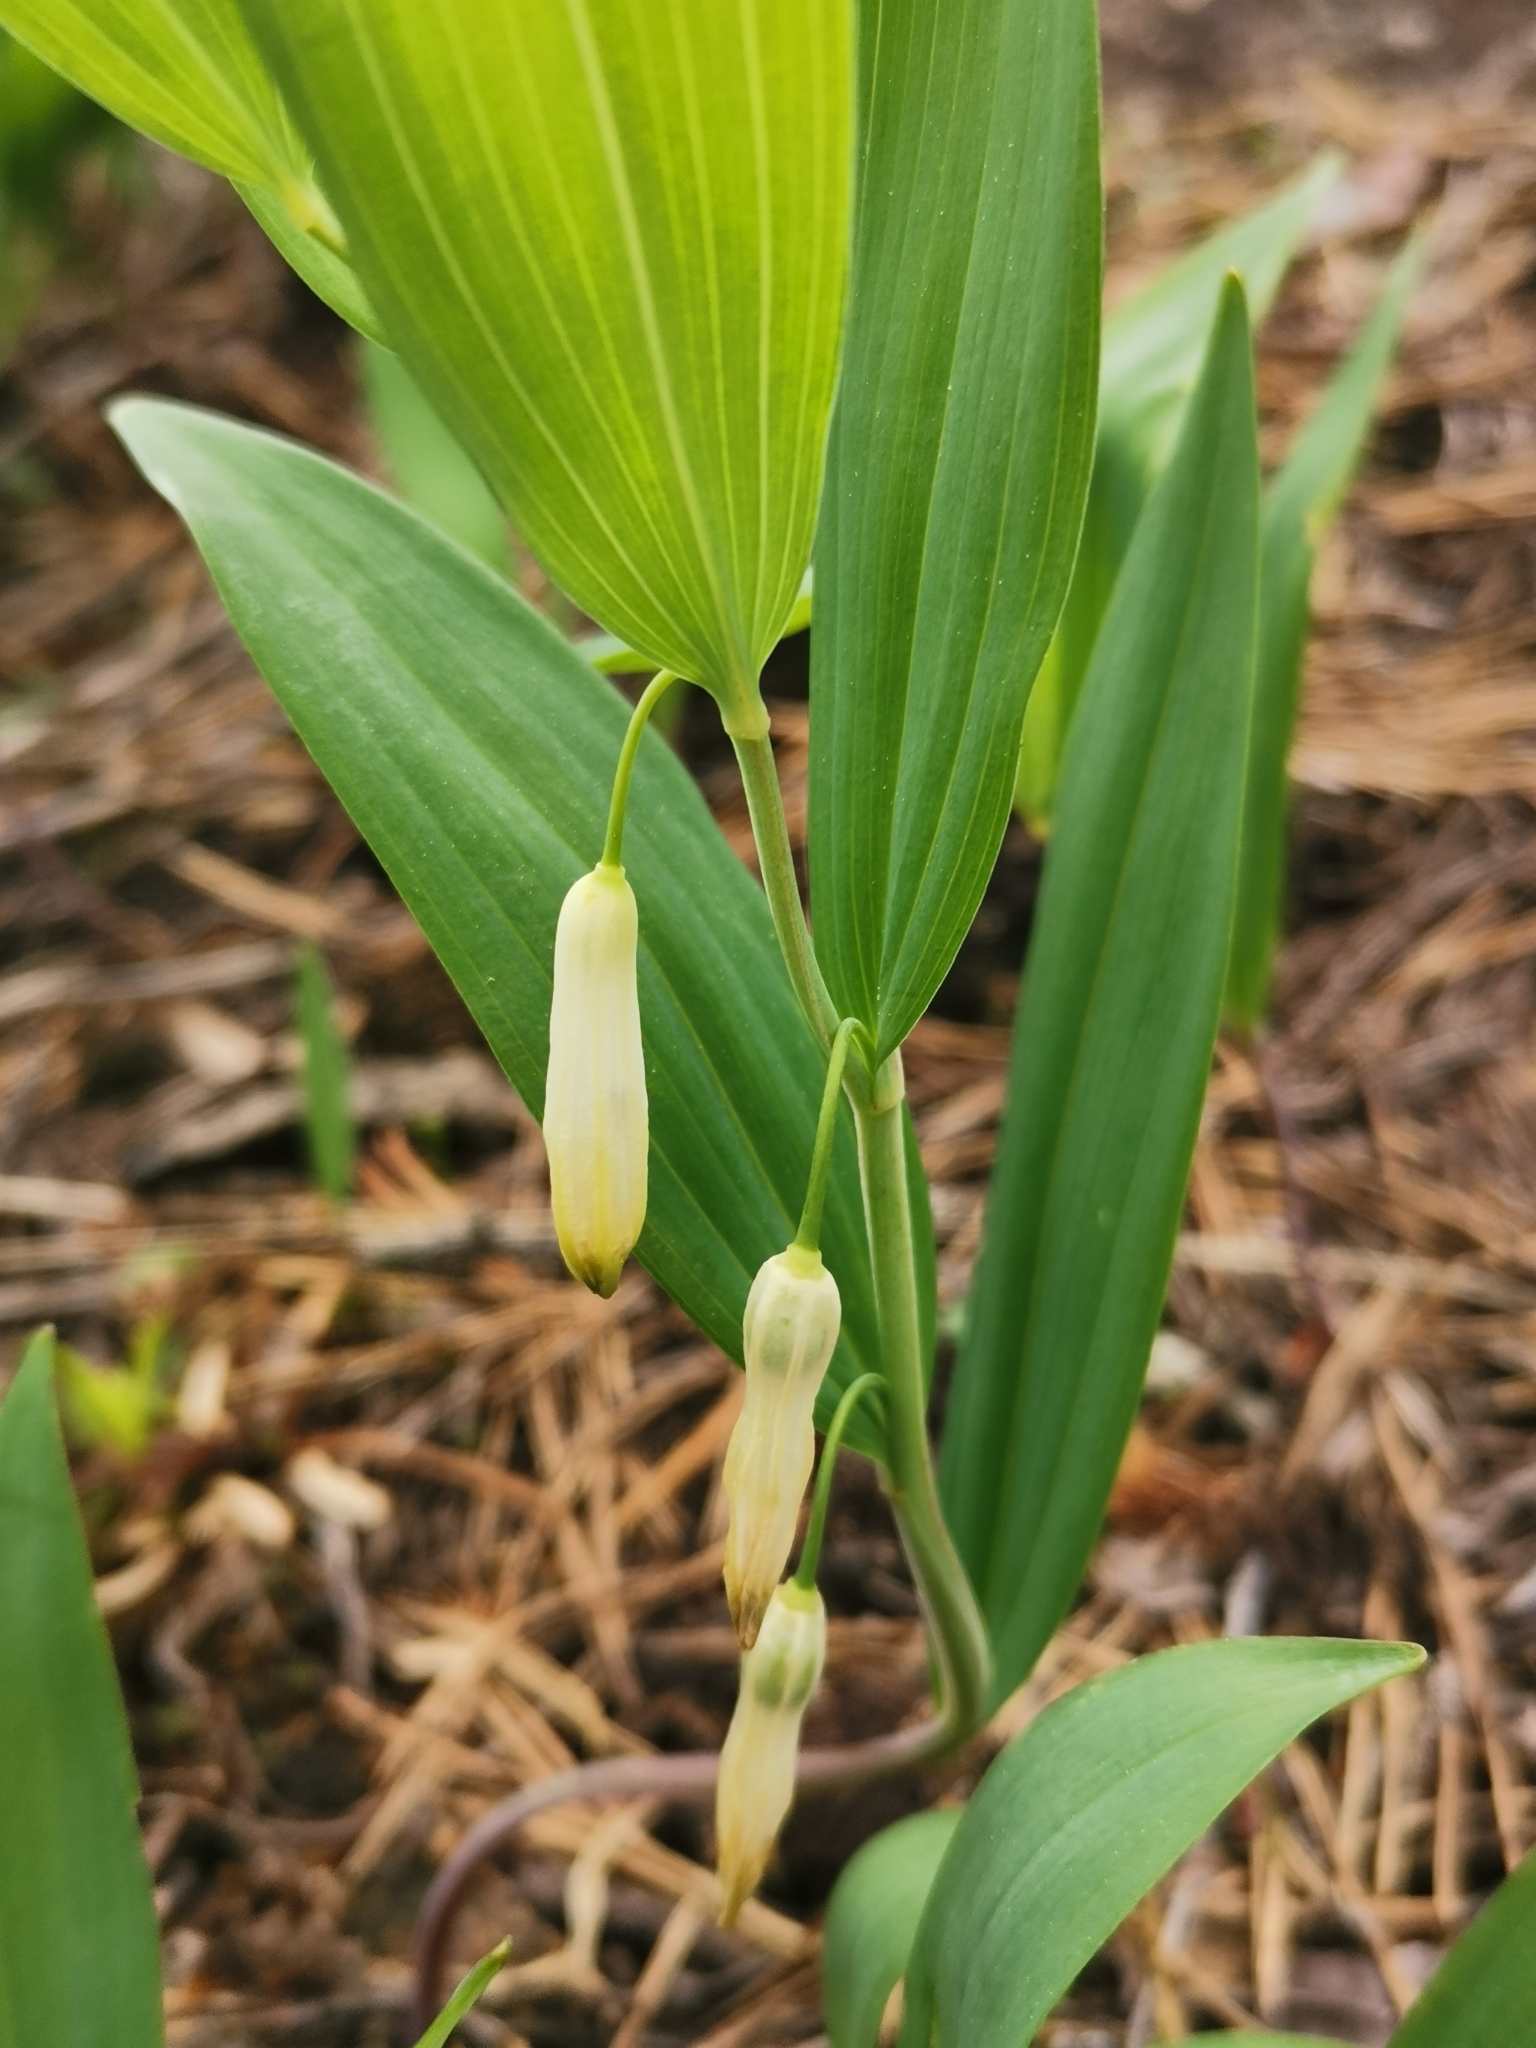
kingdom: Plantae
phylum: Tracheophyta
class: Liliopsida
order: Asparagales
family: Asparagaceae
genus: Polygonatum
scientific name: Polygonatum odoratum
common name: Angular solomon's-seal
